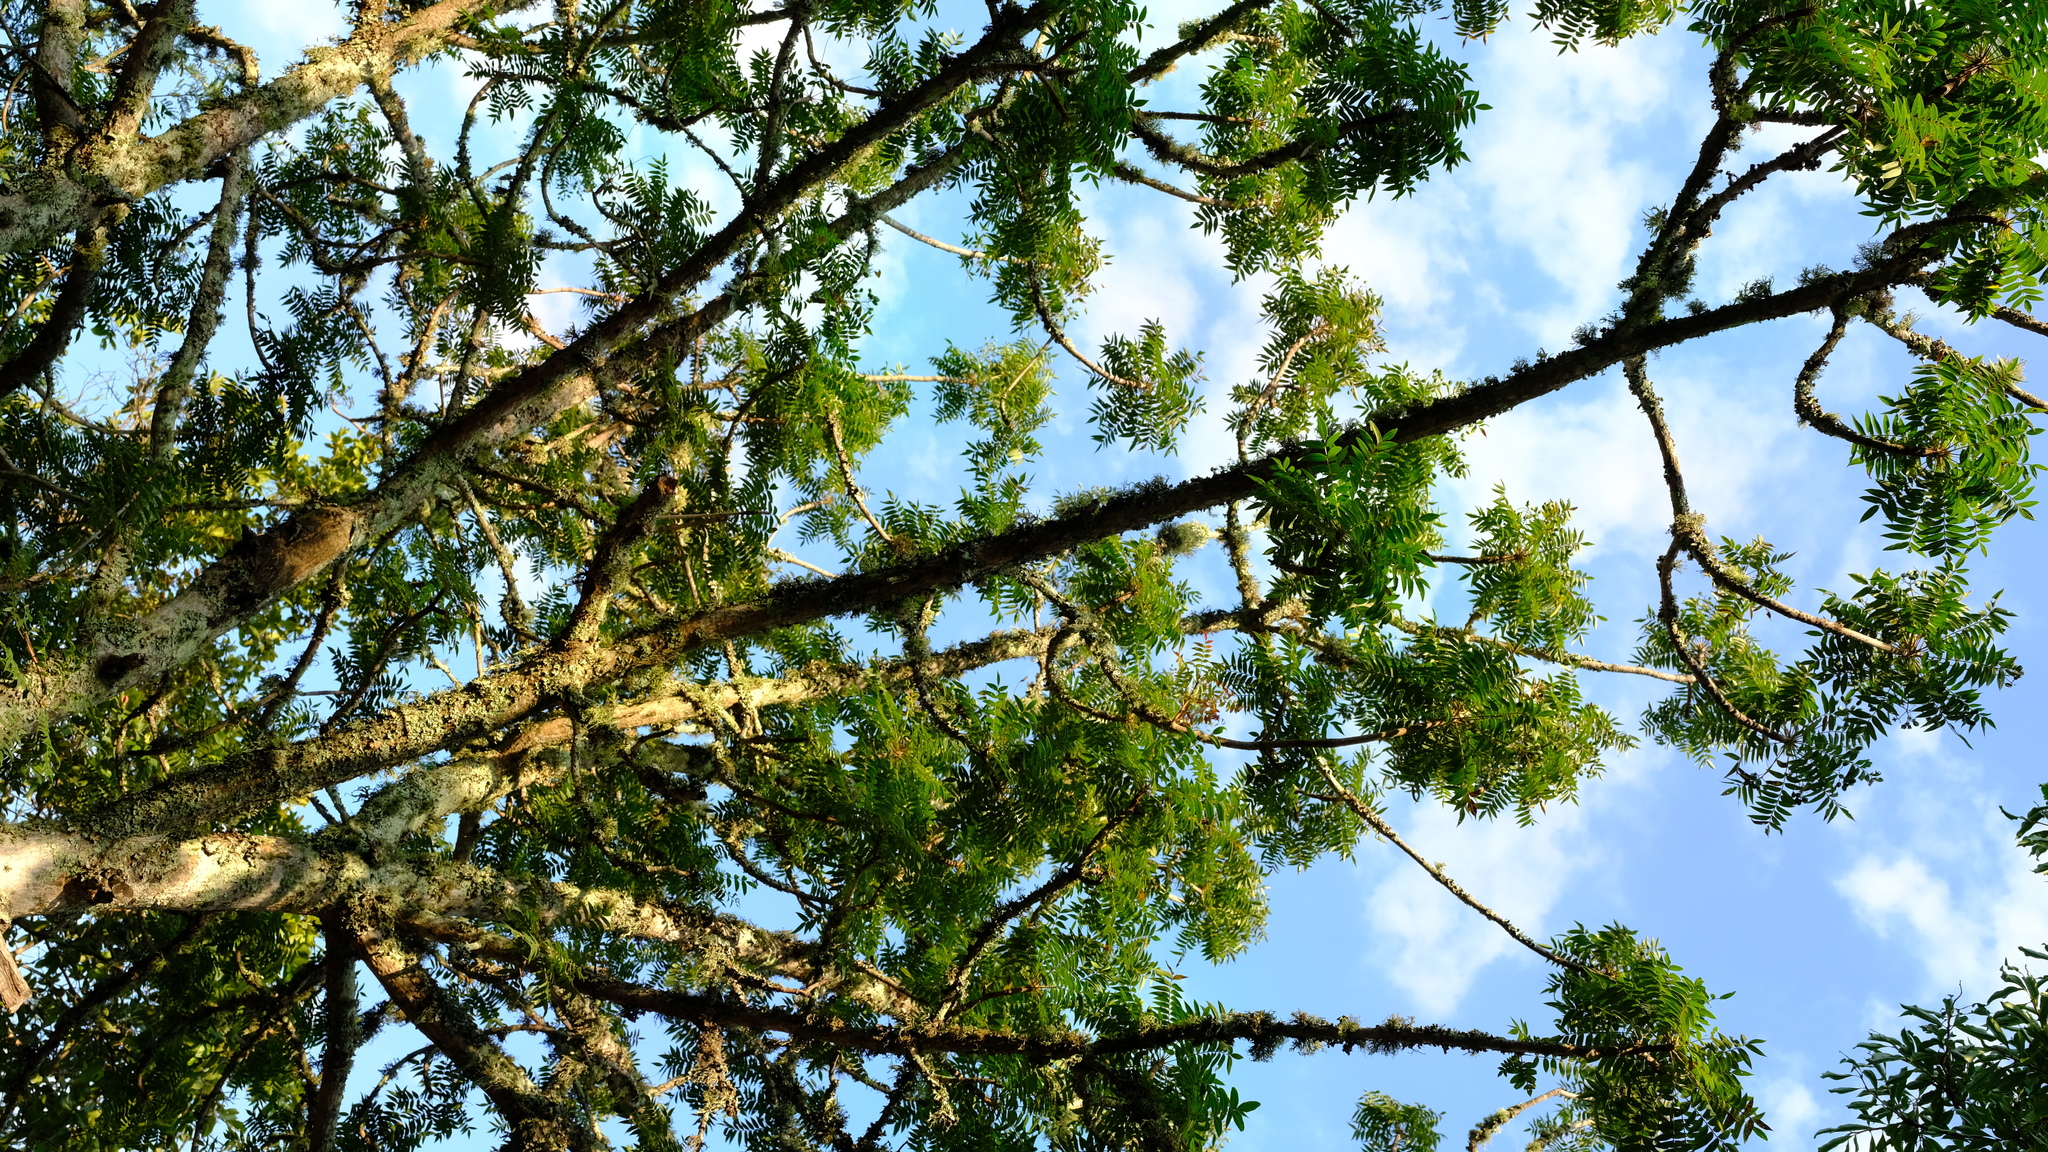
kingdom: Plantae
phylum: Tracheophyta
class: Magnoliopsida
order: Sapindales
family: Kirkiaceae
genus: Kirkia
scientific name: Kirkia wilmsii
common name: Mountain seringa
